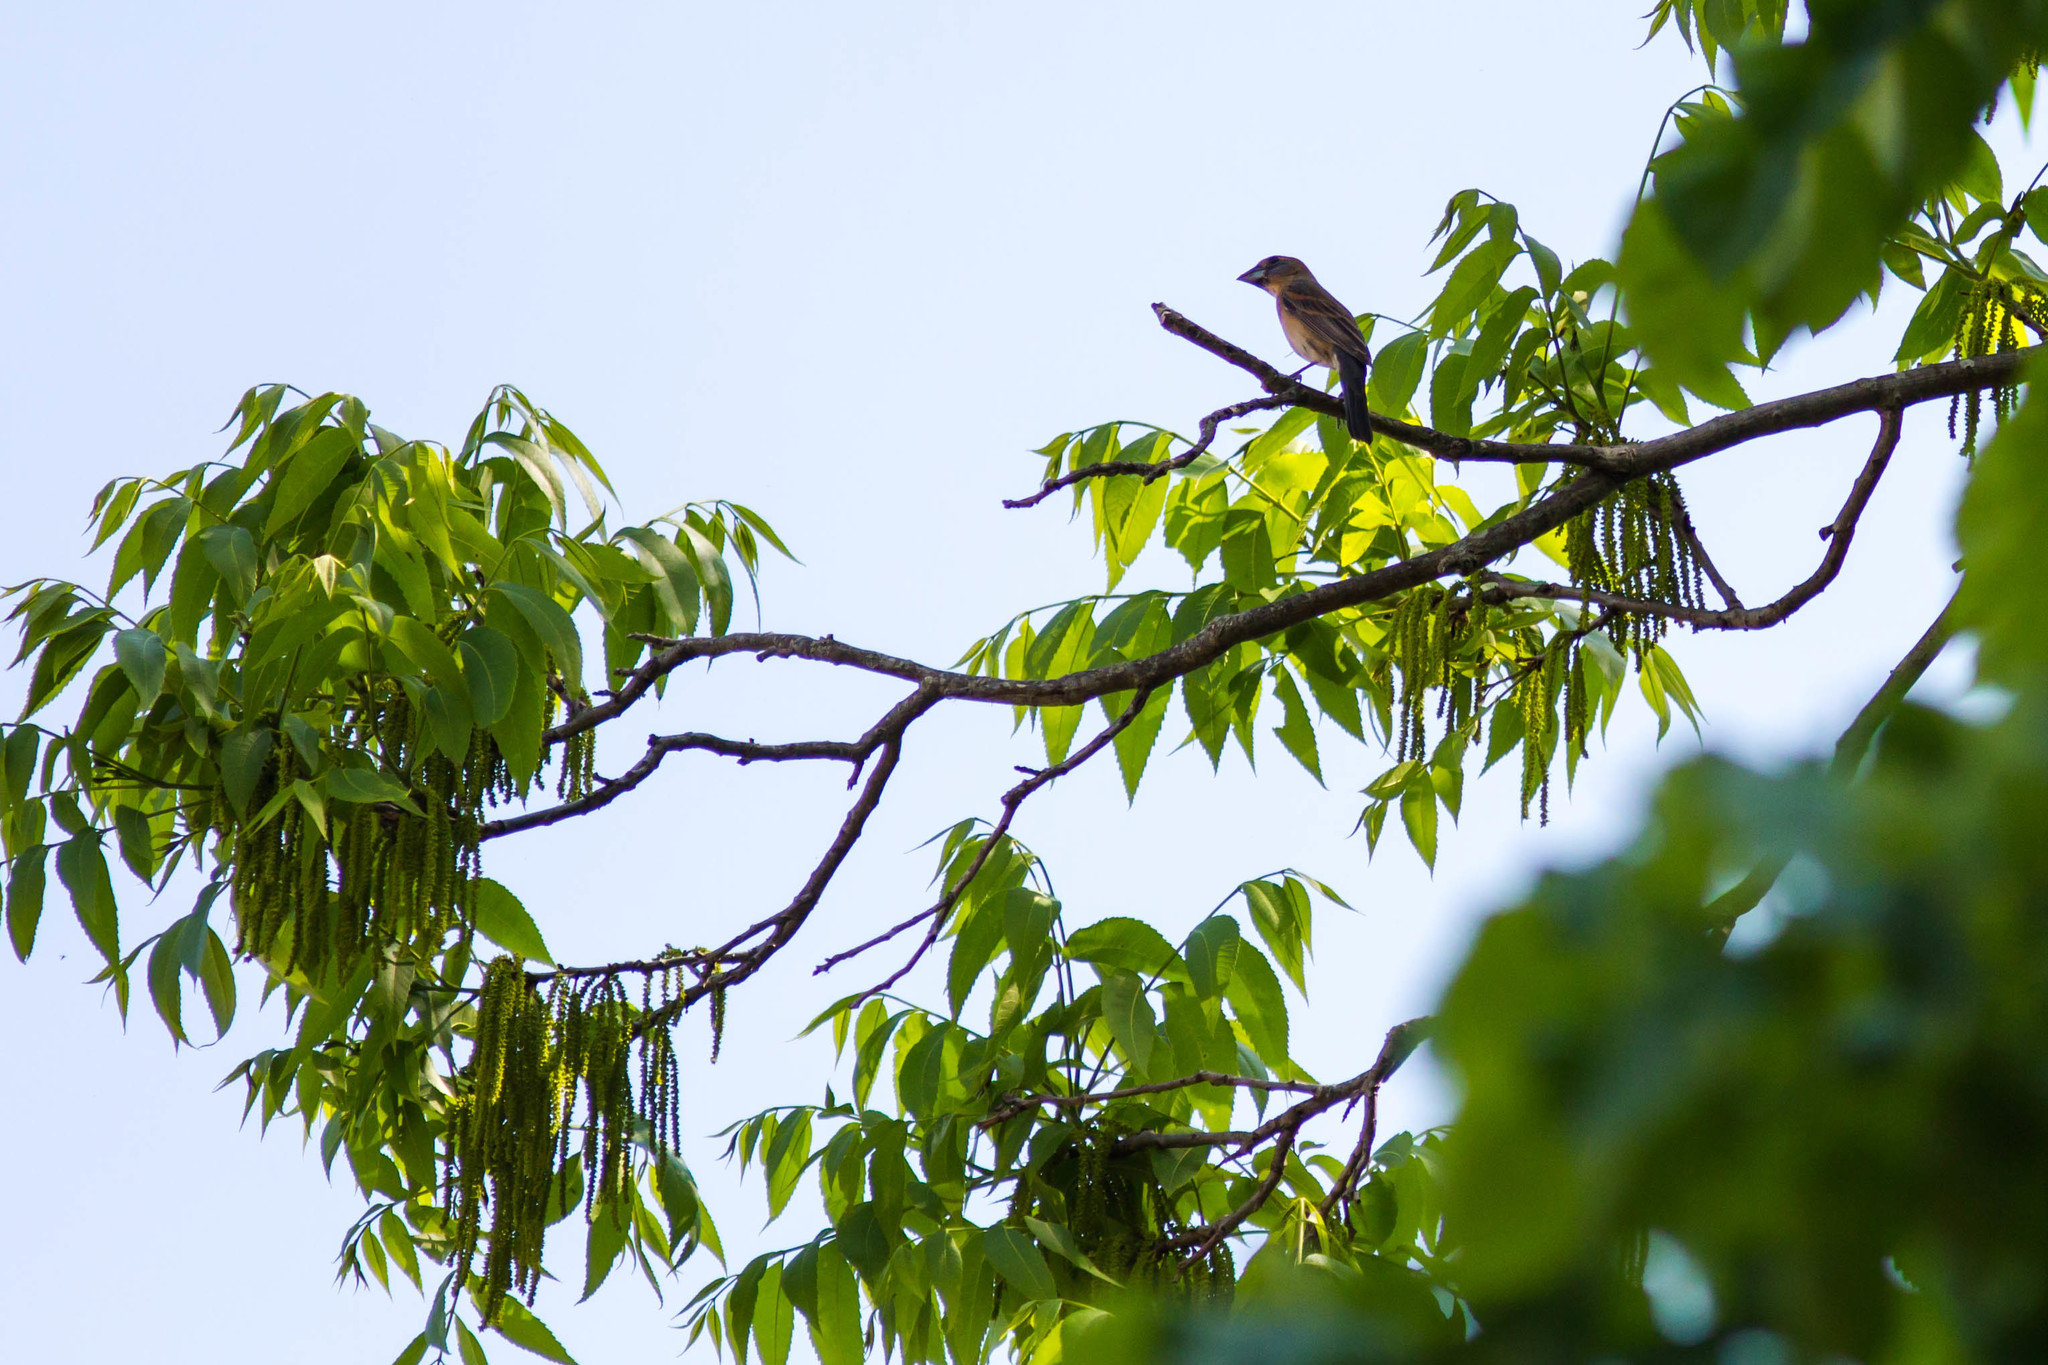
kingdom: Animalia
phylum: Chordata
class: Aves
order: Passeriformes
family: Cardinalidae
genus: Passerina
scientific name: Passerina caerulea
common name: Blue grosbeak
